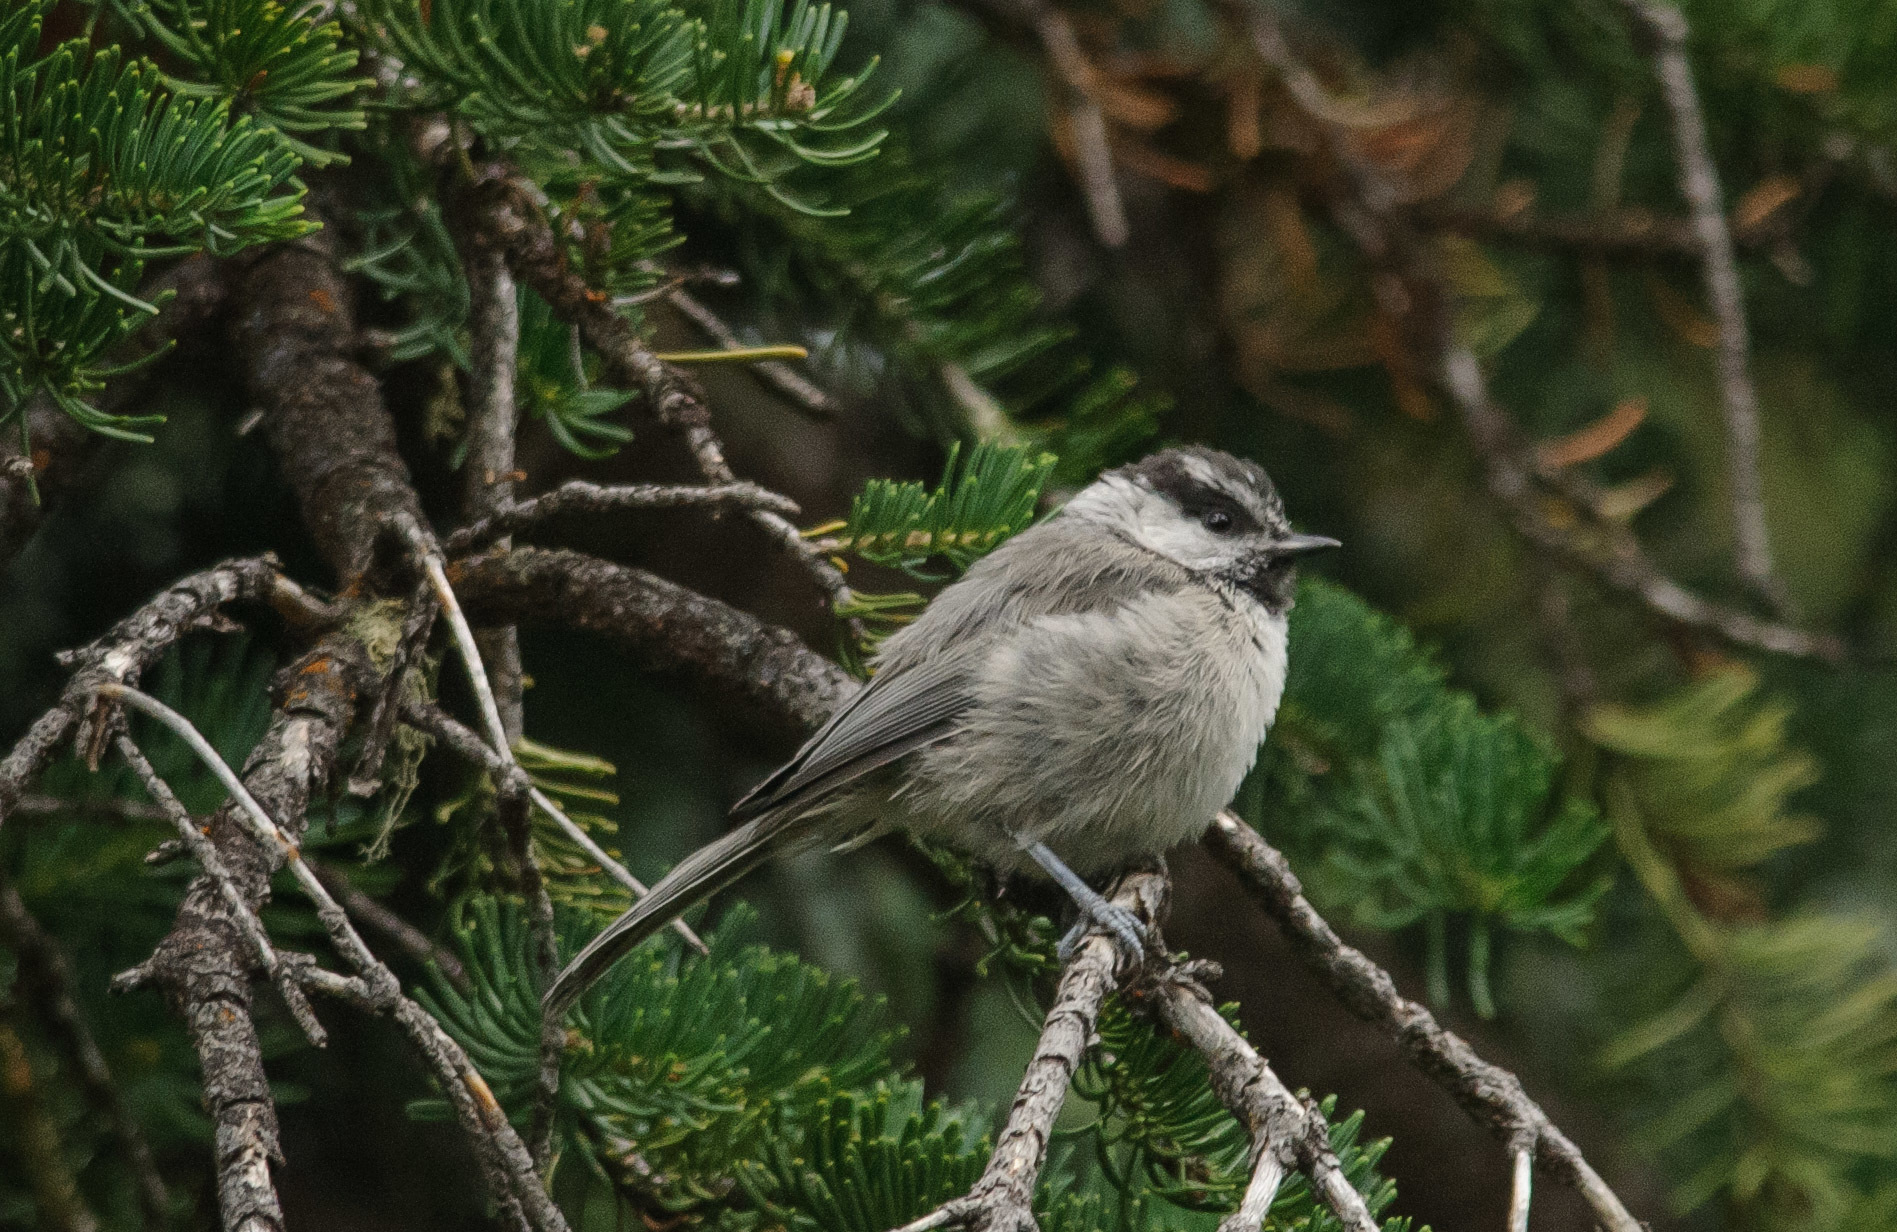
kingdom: Animalia
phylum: Chordata
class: Aves
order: Passeriformes
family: Paridae
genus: Poecile
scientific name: Poecile gambeli
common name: Mountain chickadee
